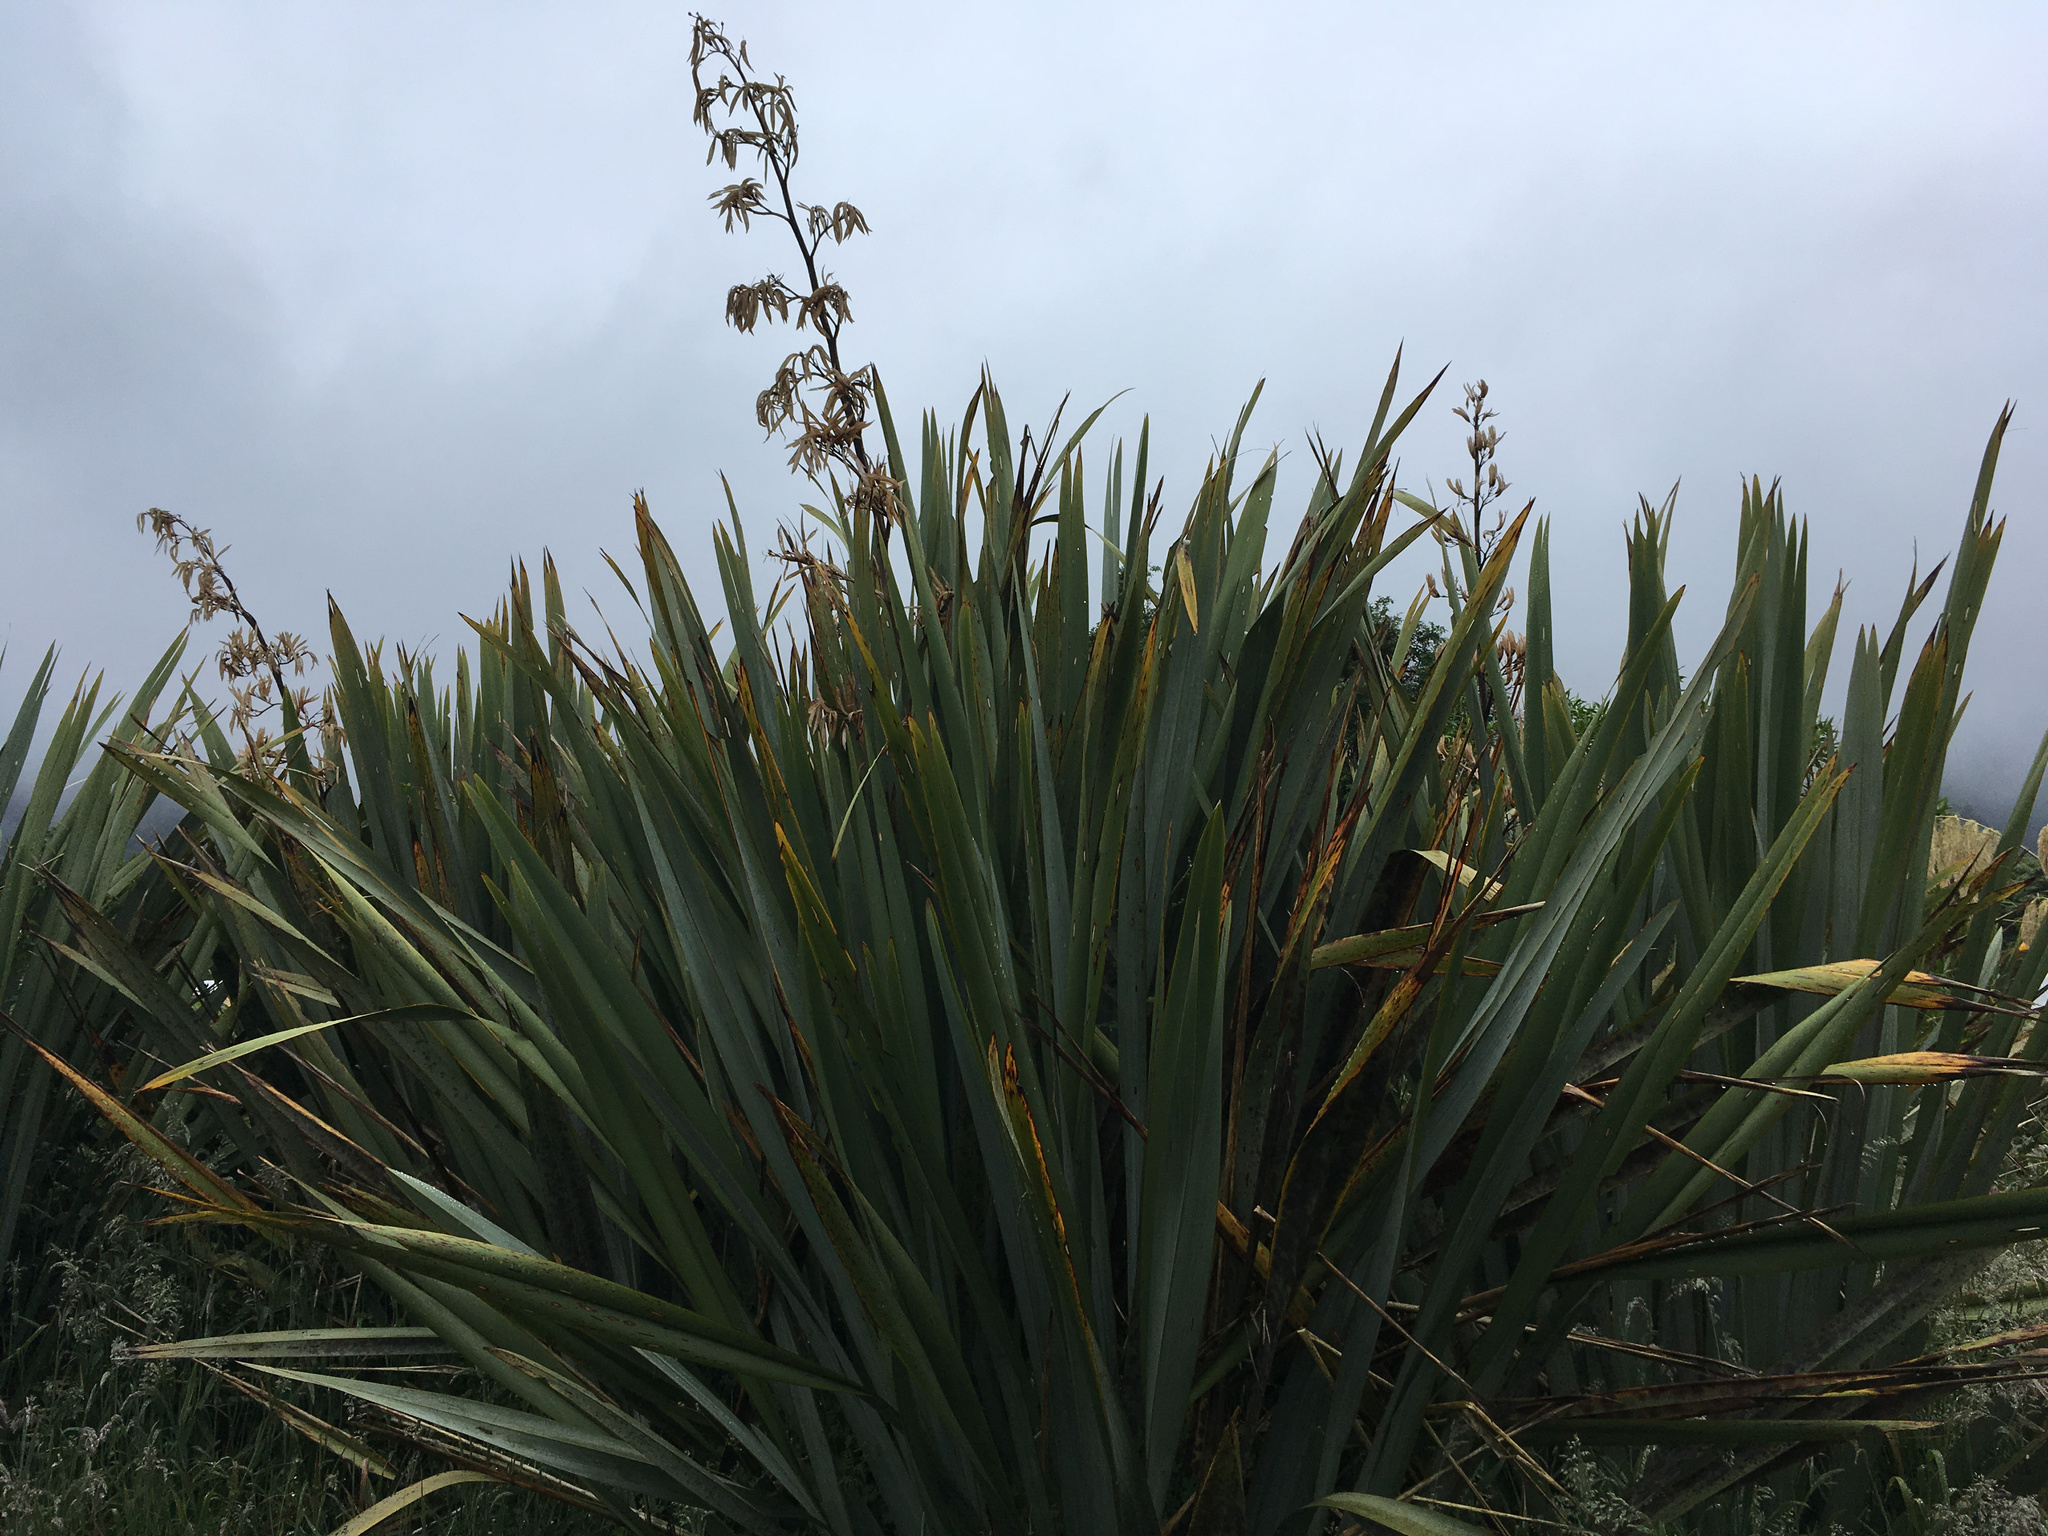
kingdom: Plantae
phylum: Tracheophyta
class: Liliopsida
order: Asparagales
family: Asphodelaceae
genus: Phormium
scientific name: Phormium tenax
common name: New zealand flax
